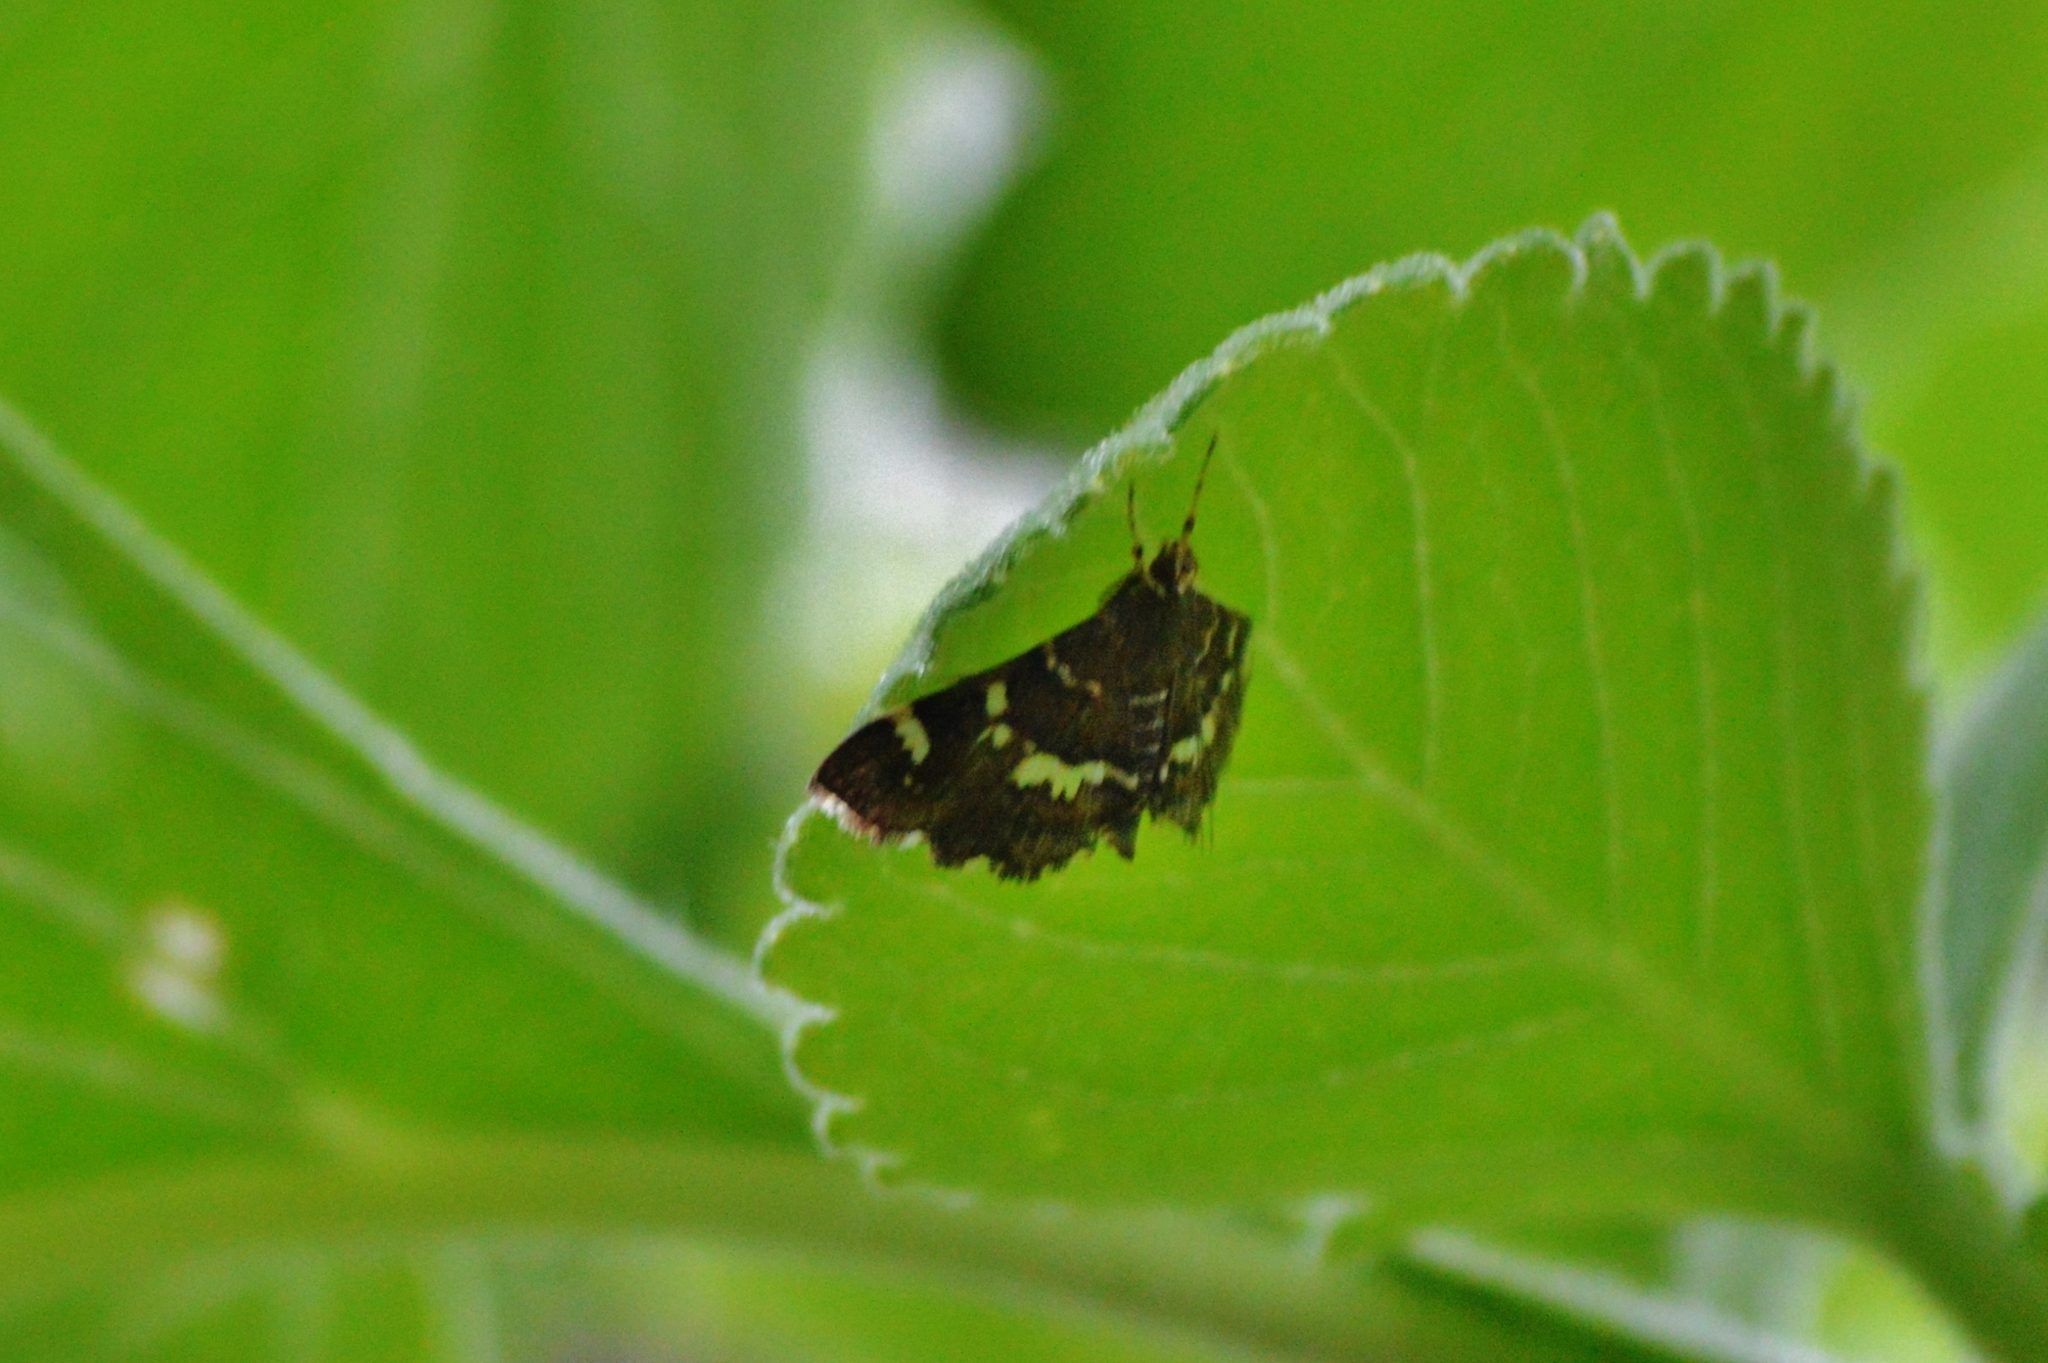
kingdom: Animalia
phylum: Arthropoda
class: Insecta
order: Lepidoptera
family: Crambidae
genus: Hymenia
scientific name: Hymenia perspectalis
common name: Spotted beet webworm
